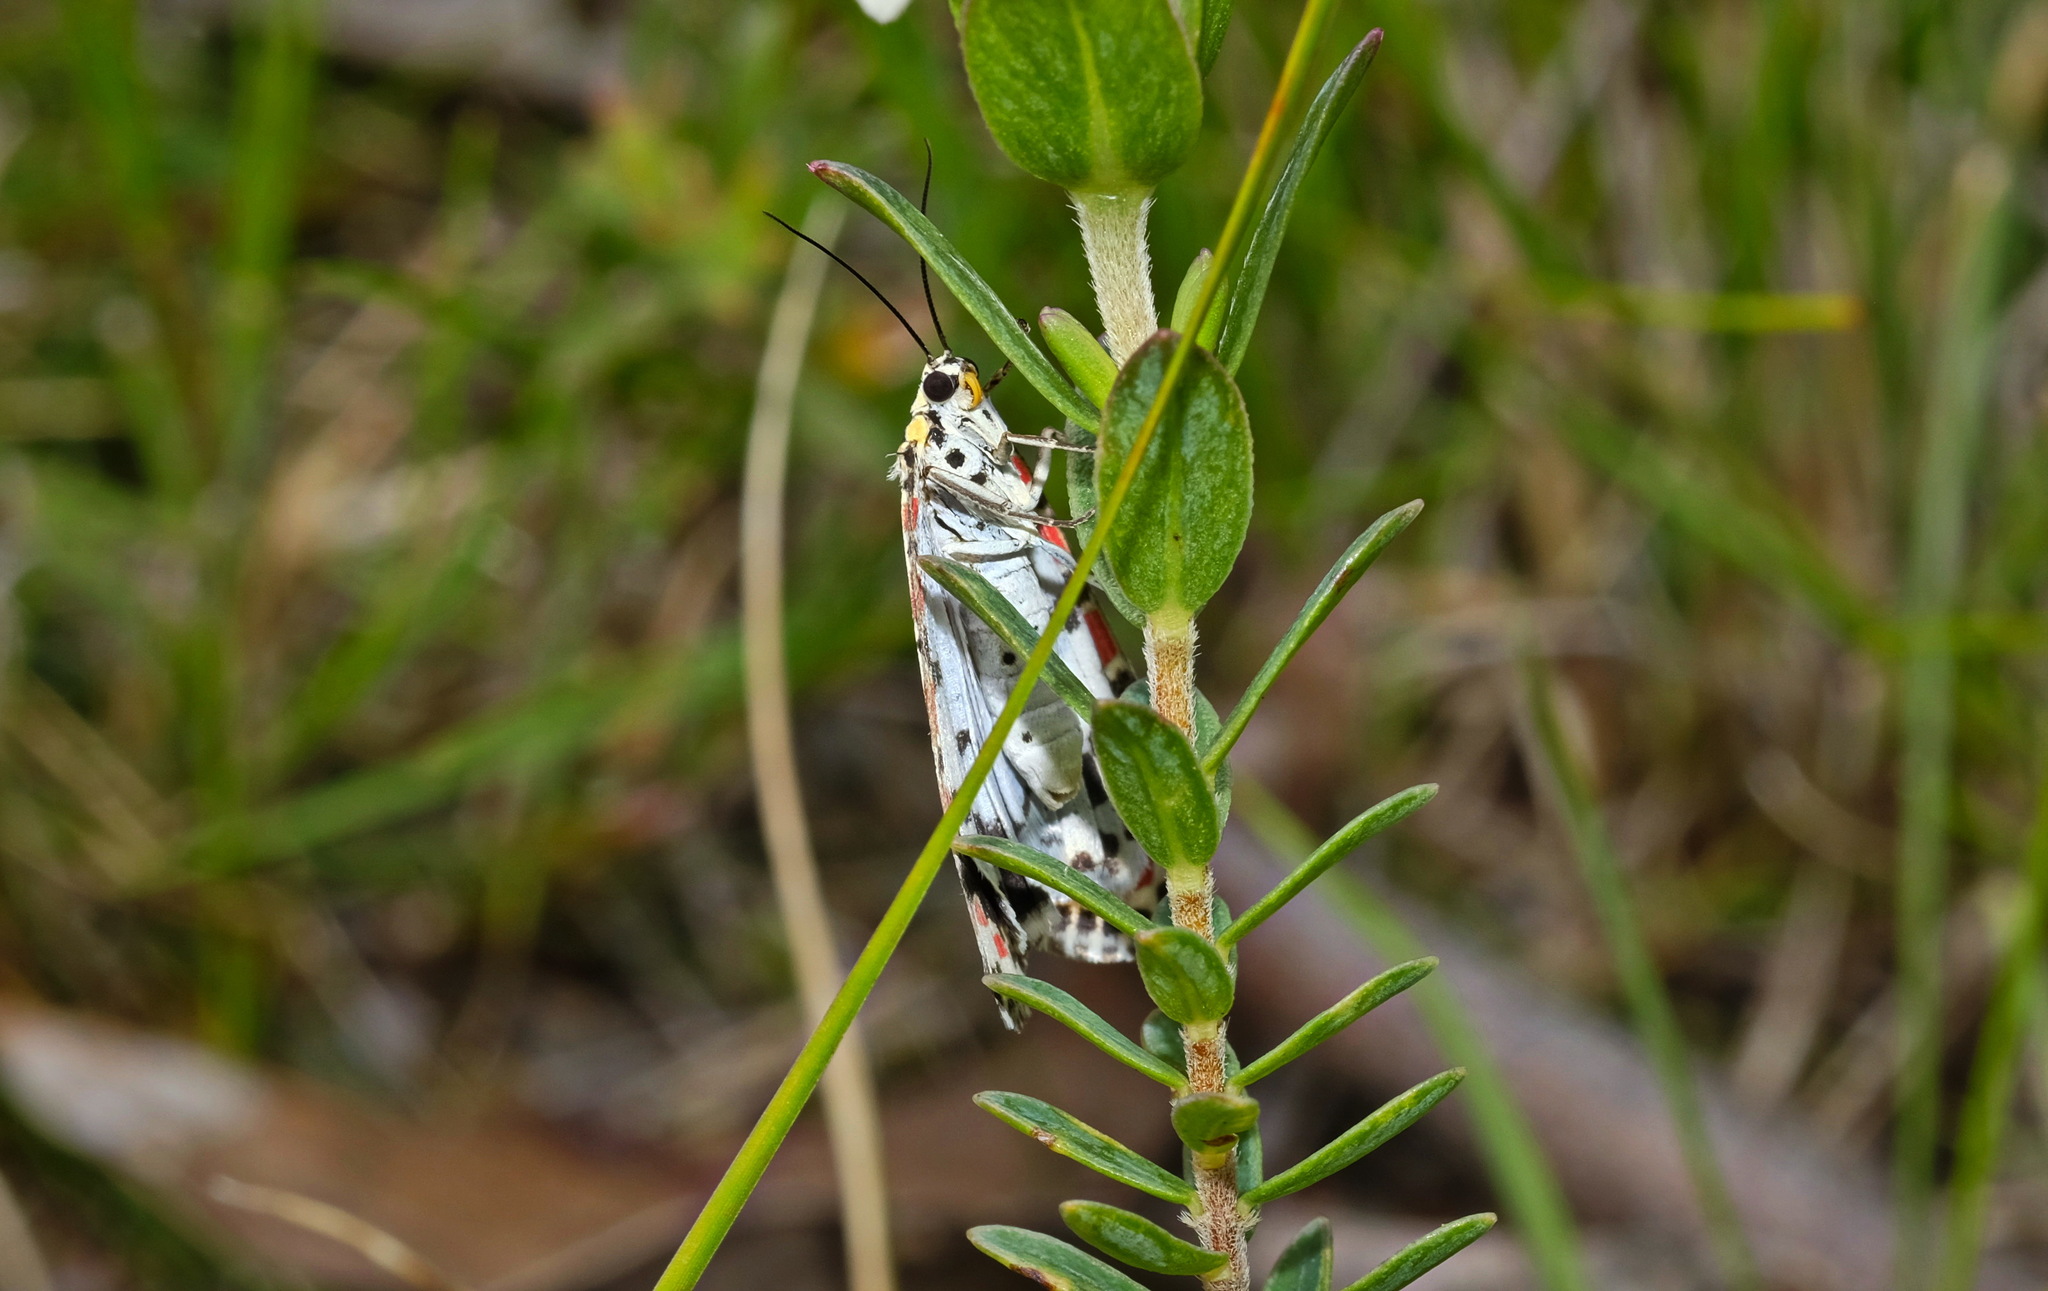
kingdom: Animalia
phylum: Arthropoda
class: Insecta
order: Lepidoptera
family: Erebidae
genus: Utetheisa
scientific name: Utetheisa pulchelloides
